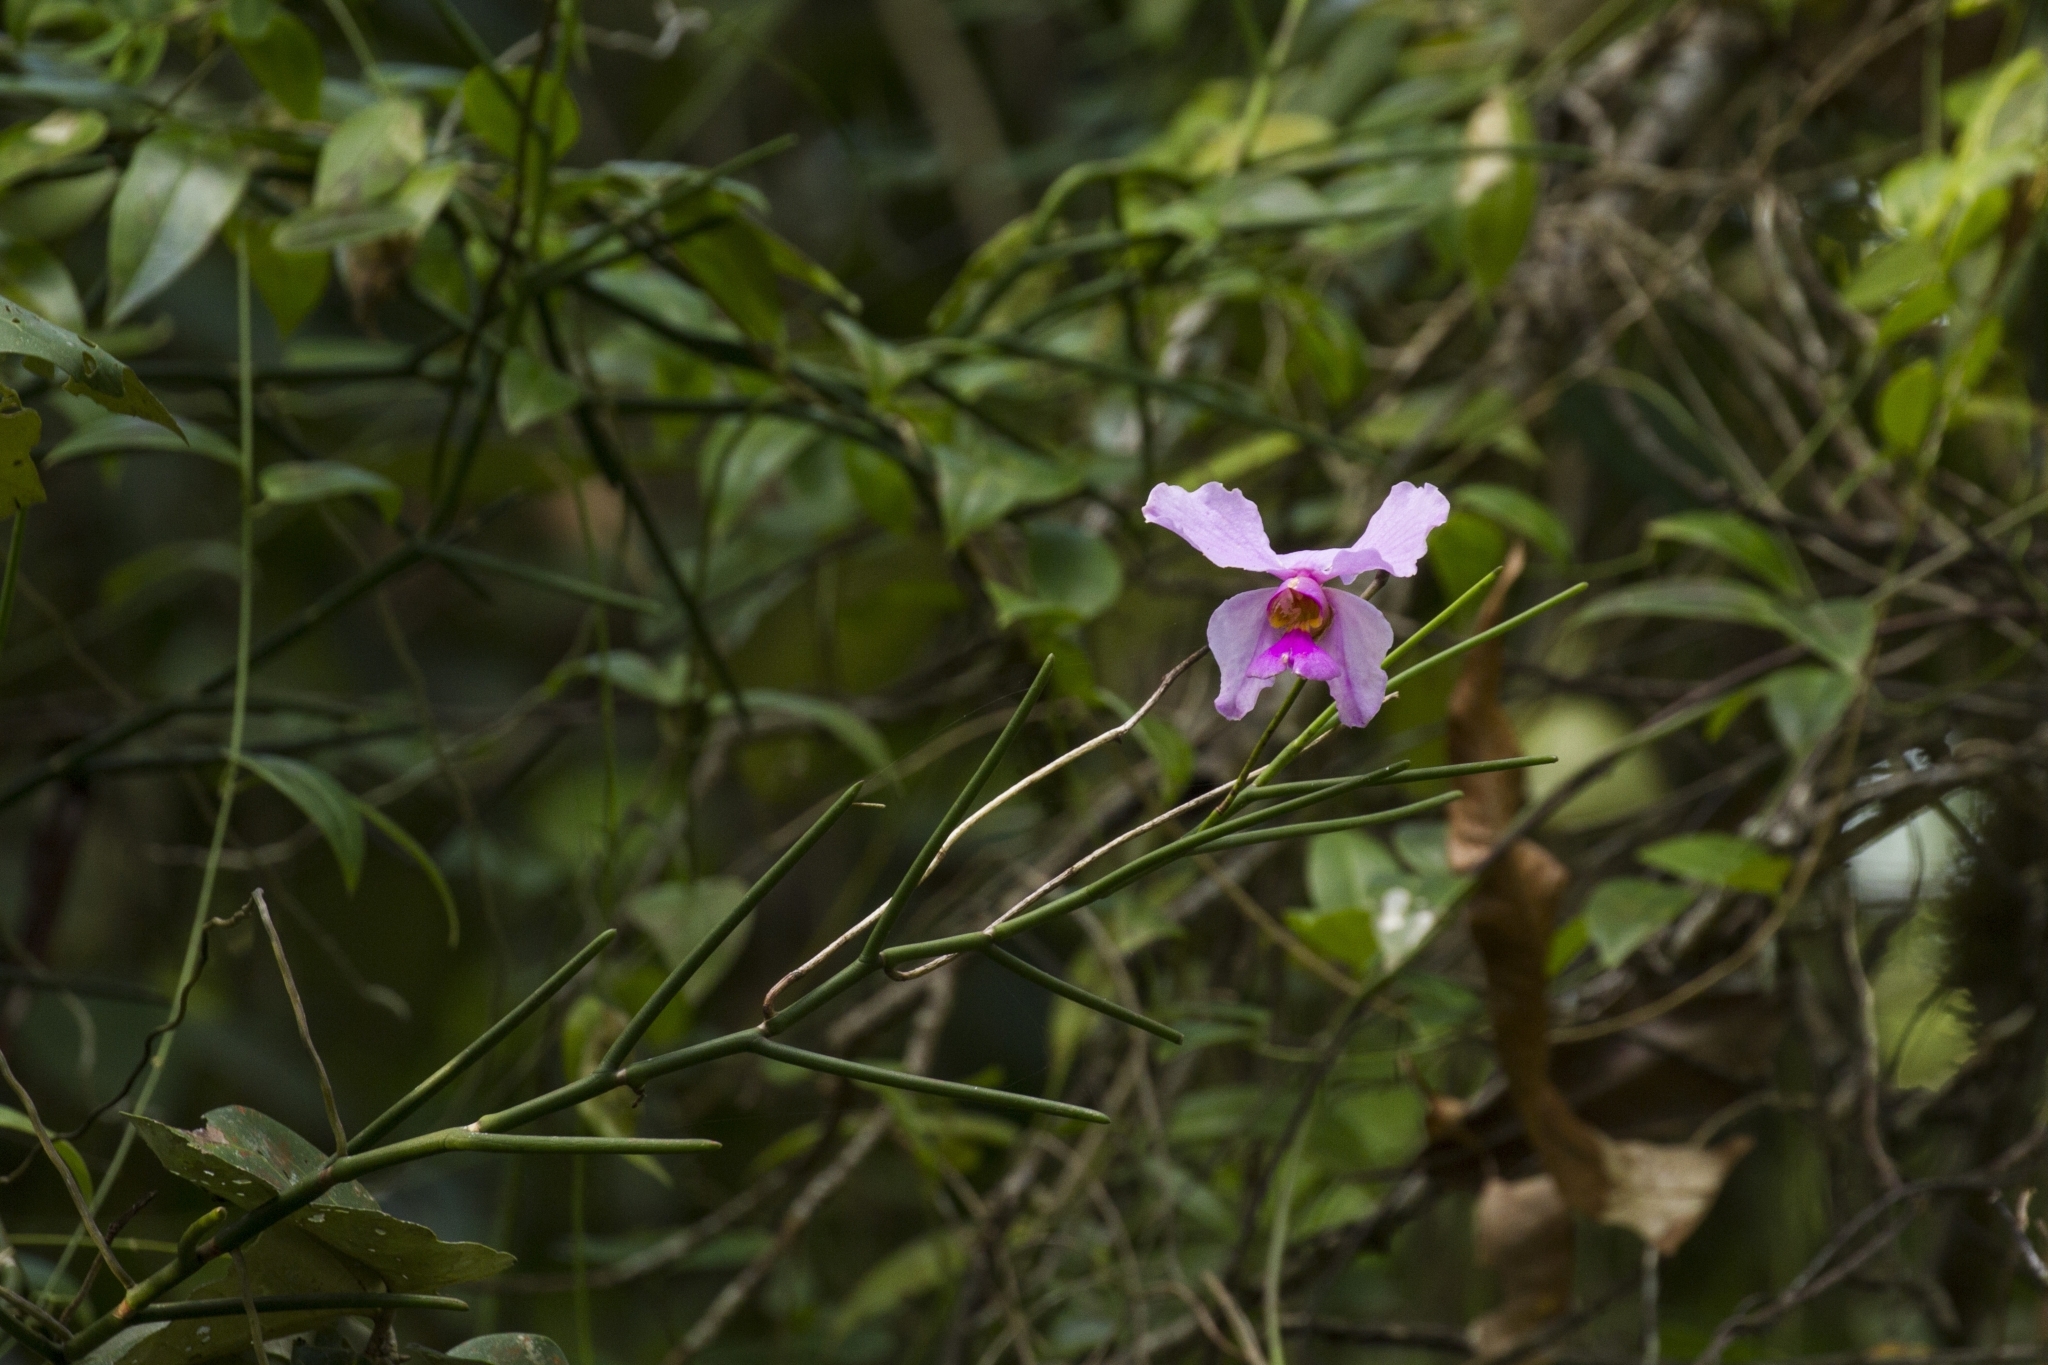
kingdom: Plantae
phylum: Tracheophyta
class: Liliopsida
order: Asparagales
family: Orchidaceae
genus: Papilionanthe
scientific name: Papilionanthe teres
